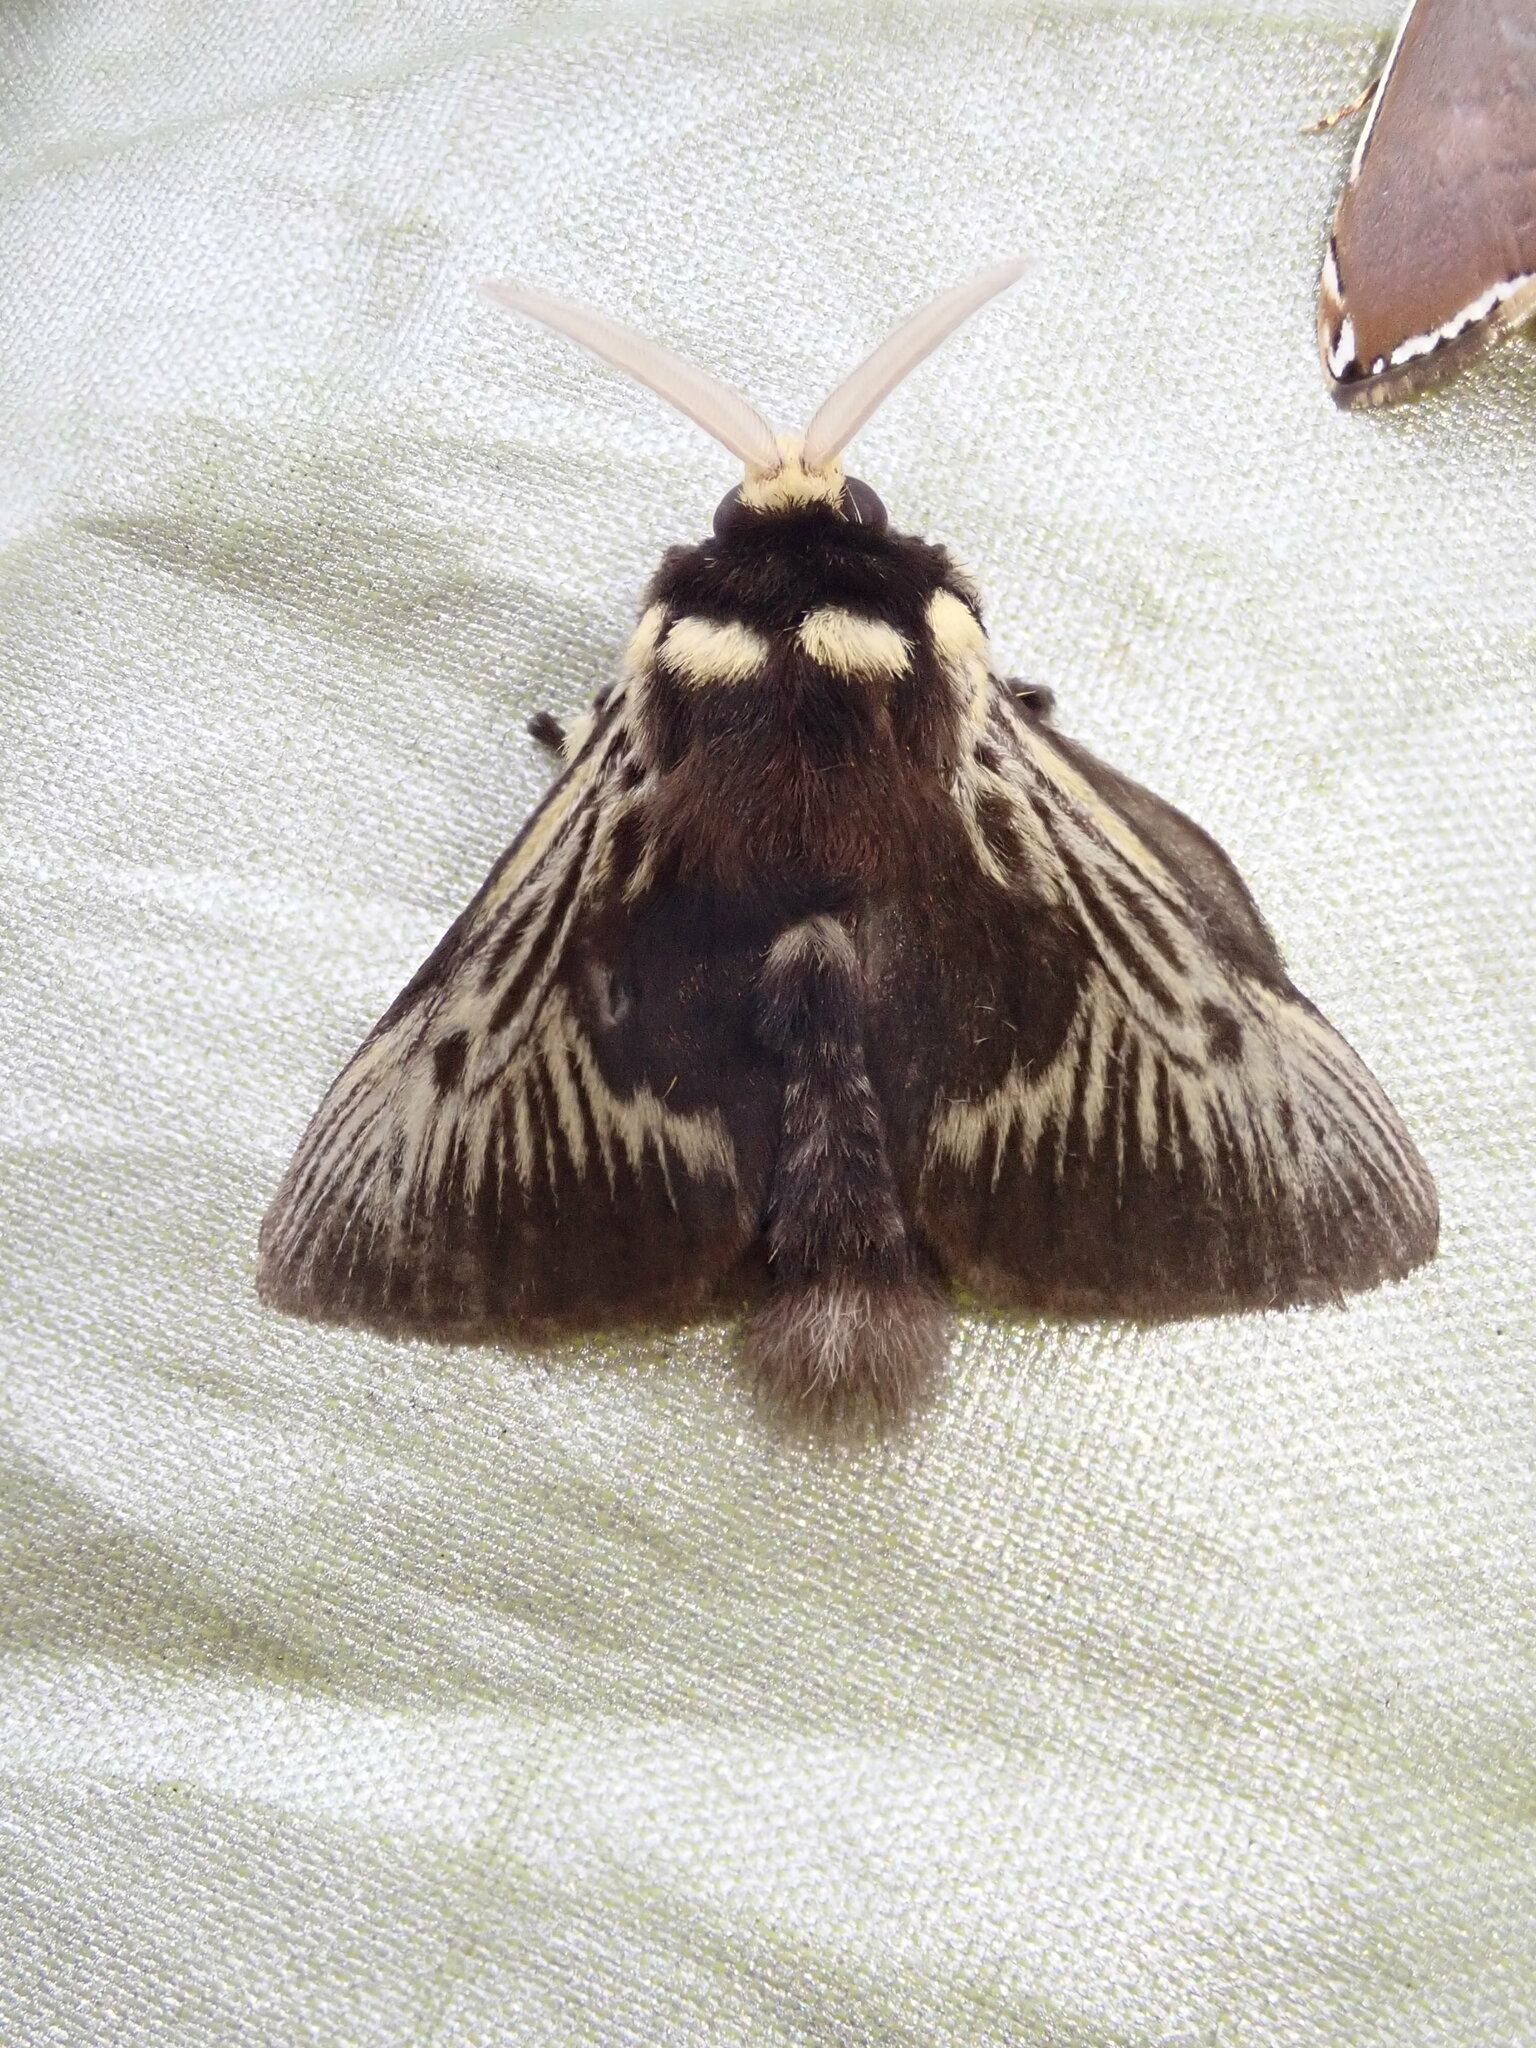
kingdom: Animalia
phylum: Arthropoda
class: Insecta
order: Lepidoptera
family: Megalopygidae
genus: Megalopyge
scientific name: Megalopyge albicollis
